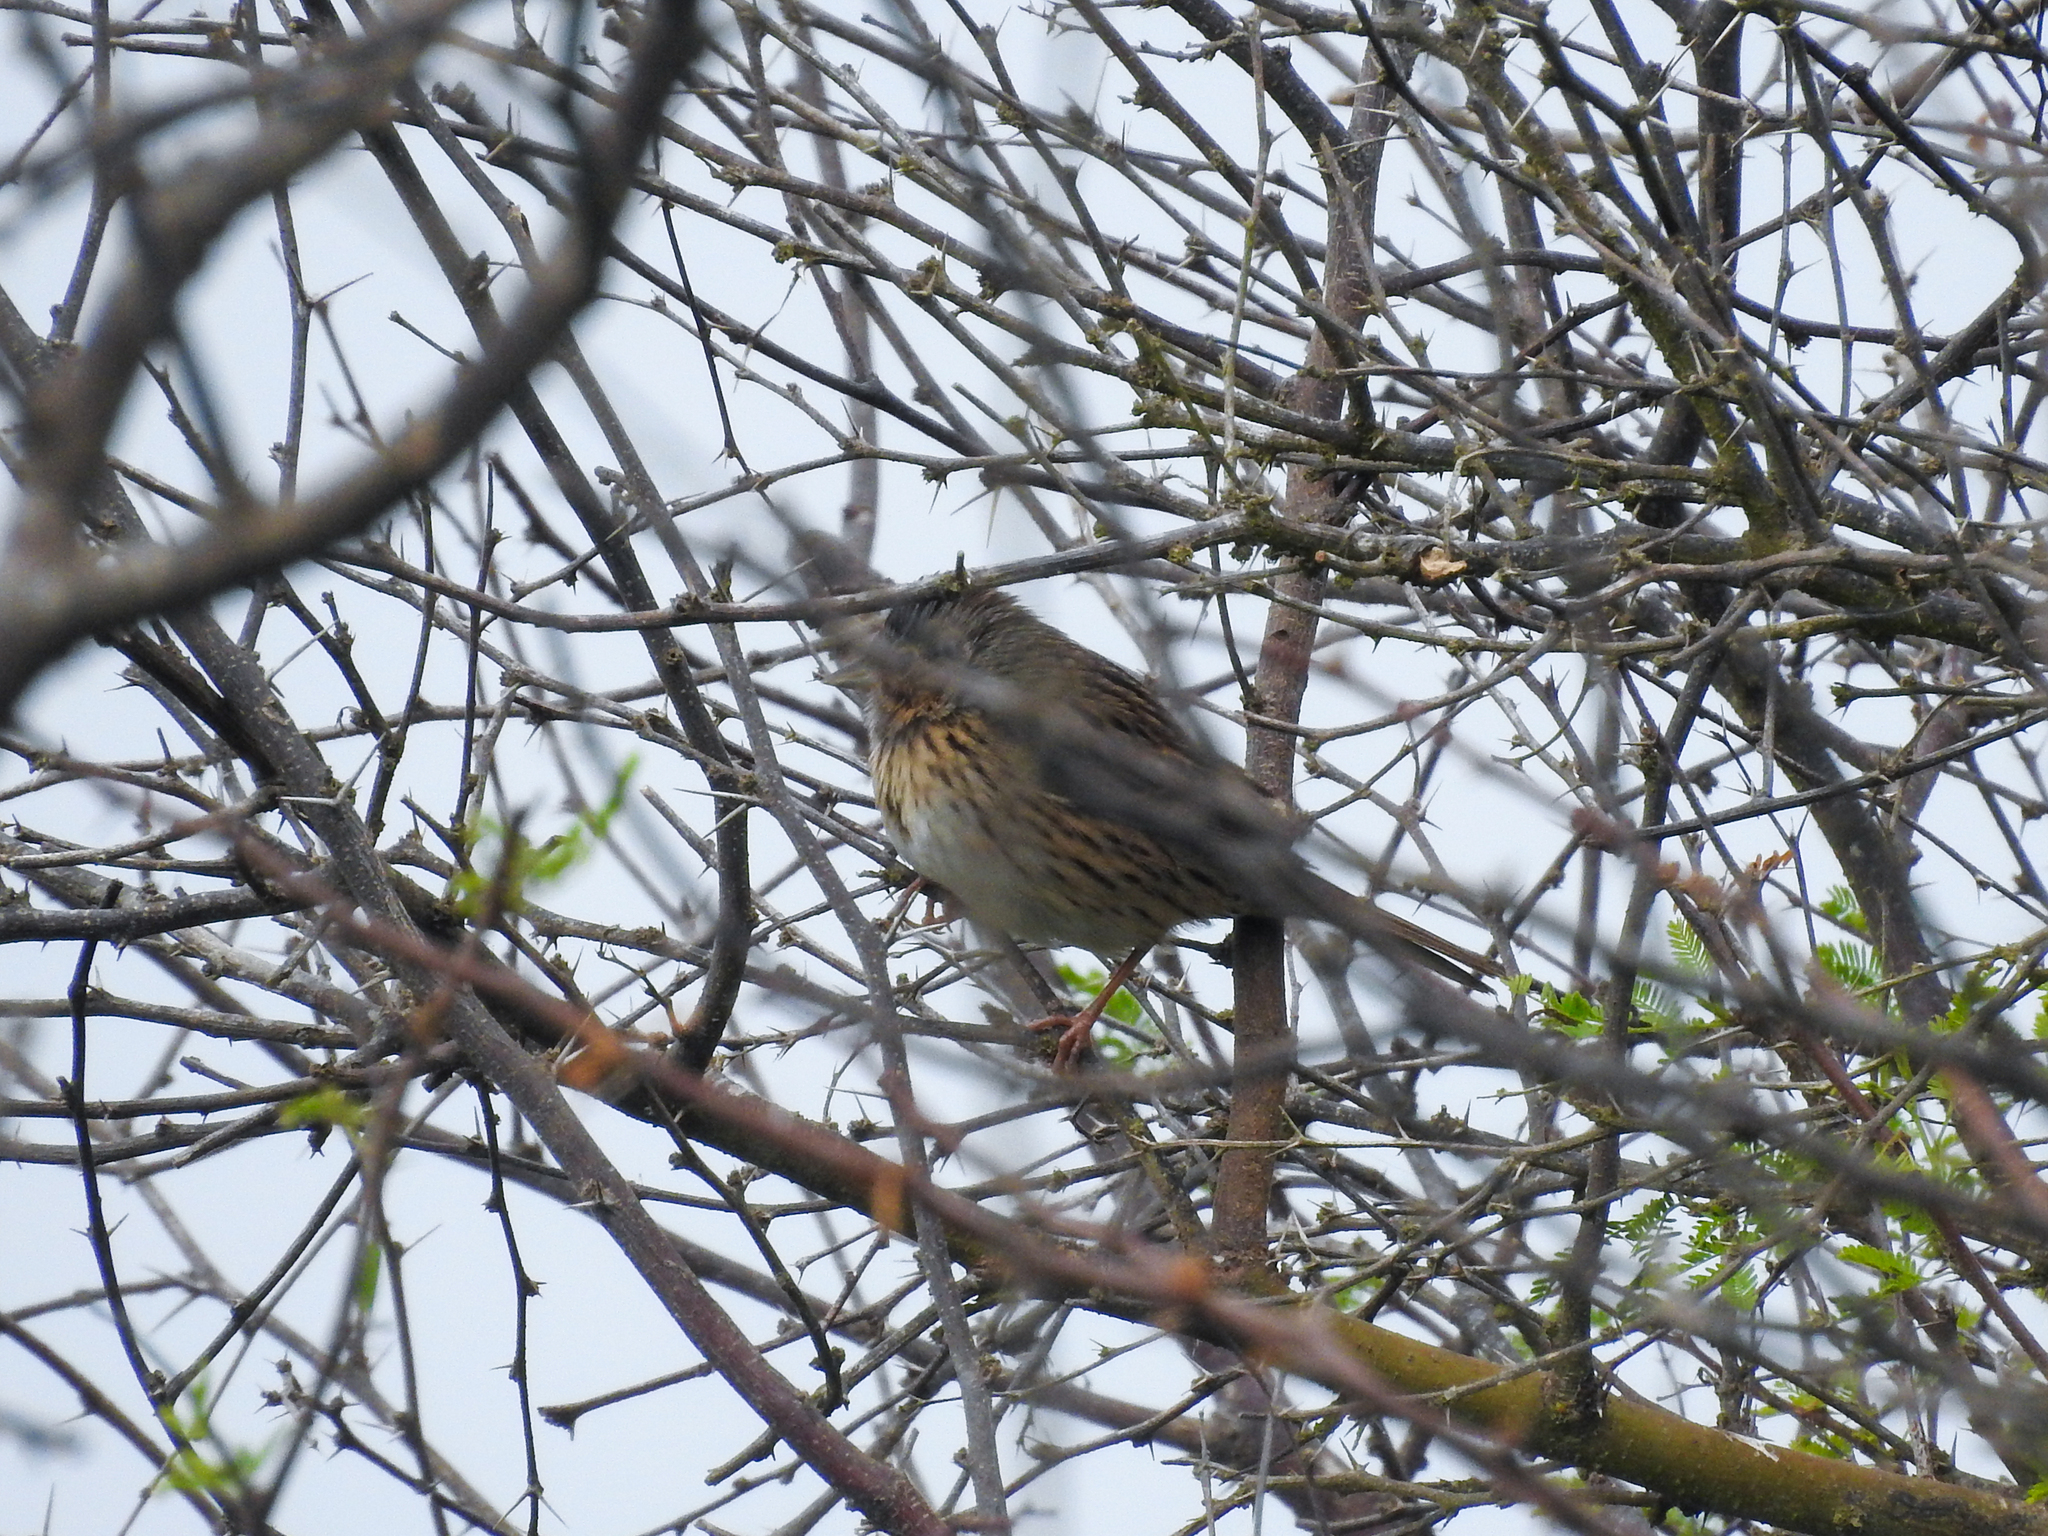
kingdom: Animalia
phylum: Chordata
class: Aves
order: Passeriformes
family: Passerellidae
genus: Melospiza
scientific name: Melospiza lincolnii
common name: Lincoln's sparrow
